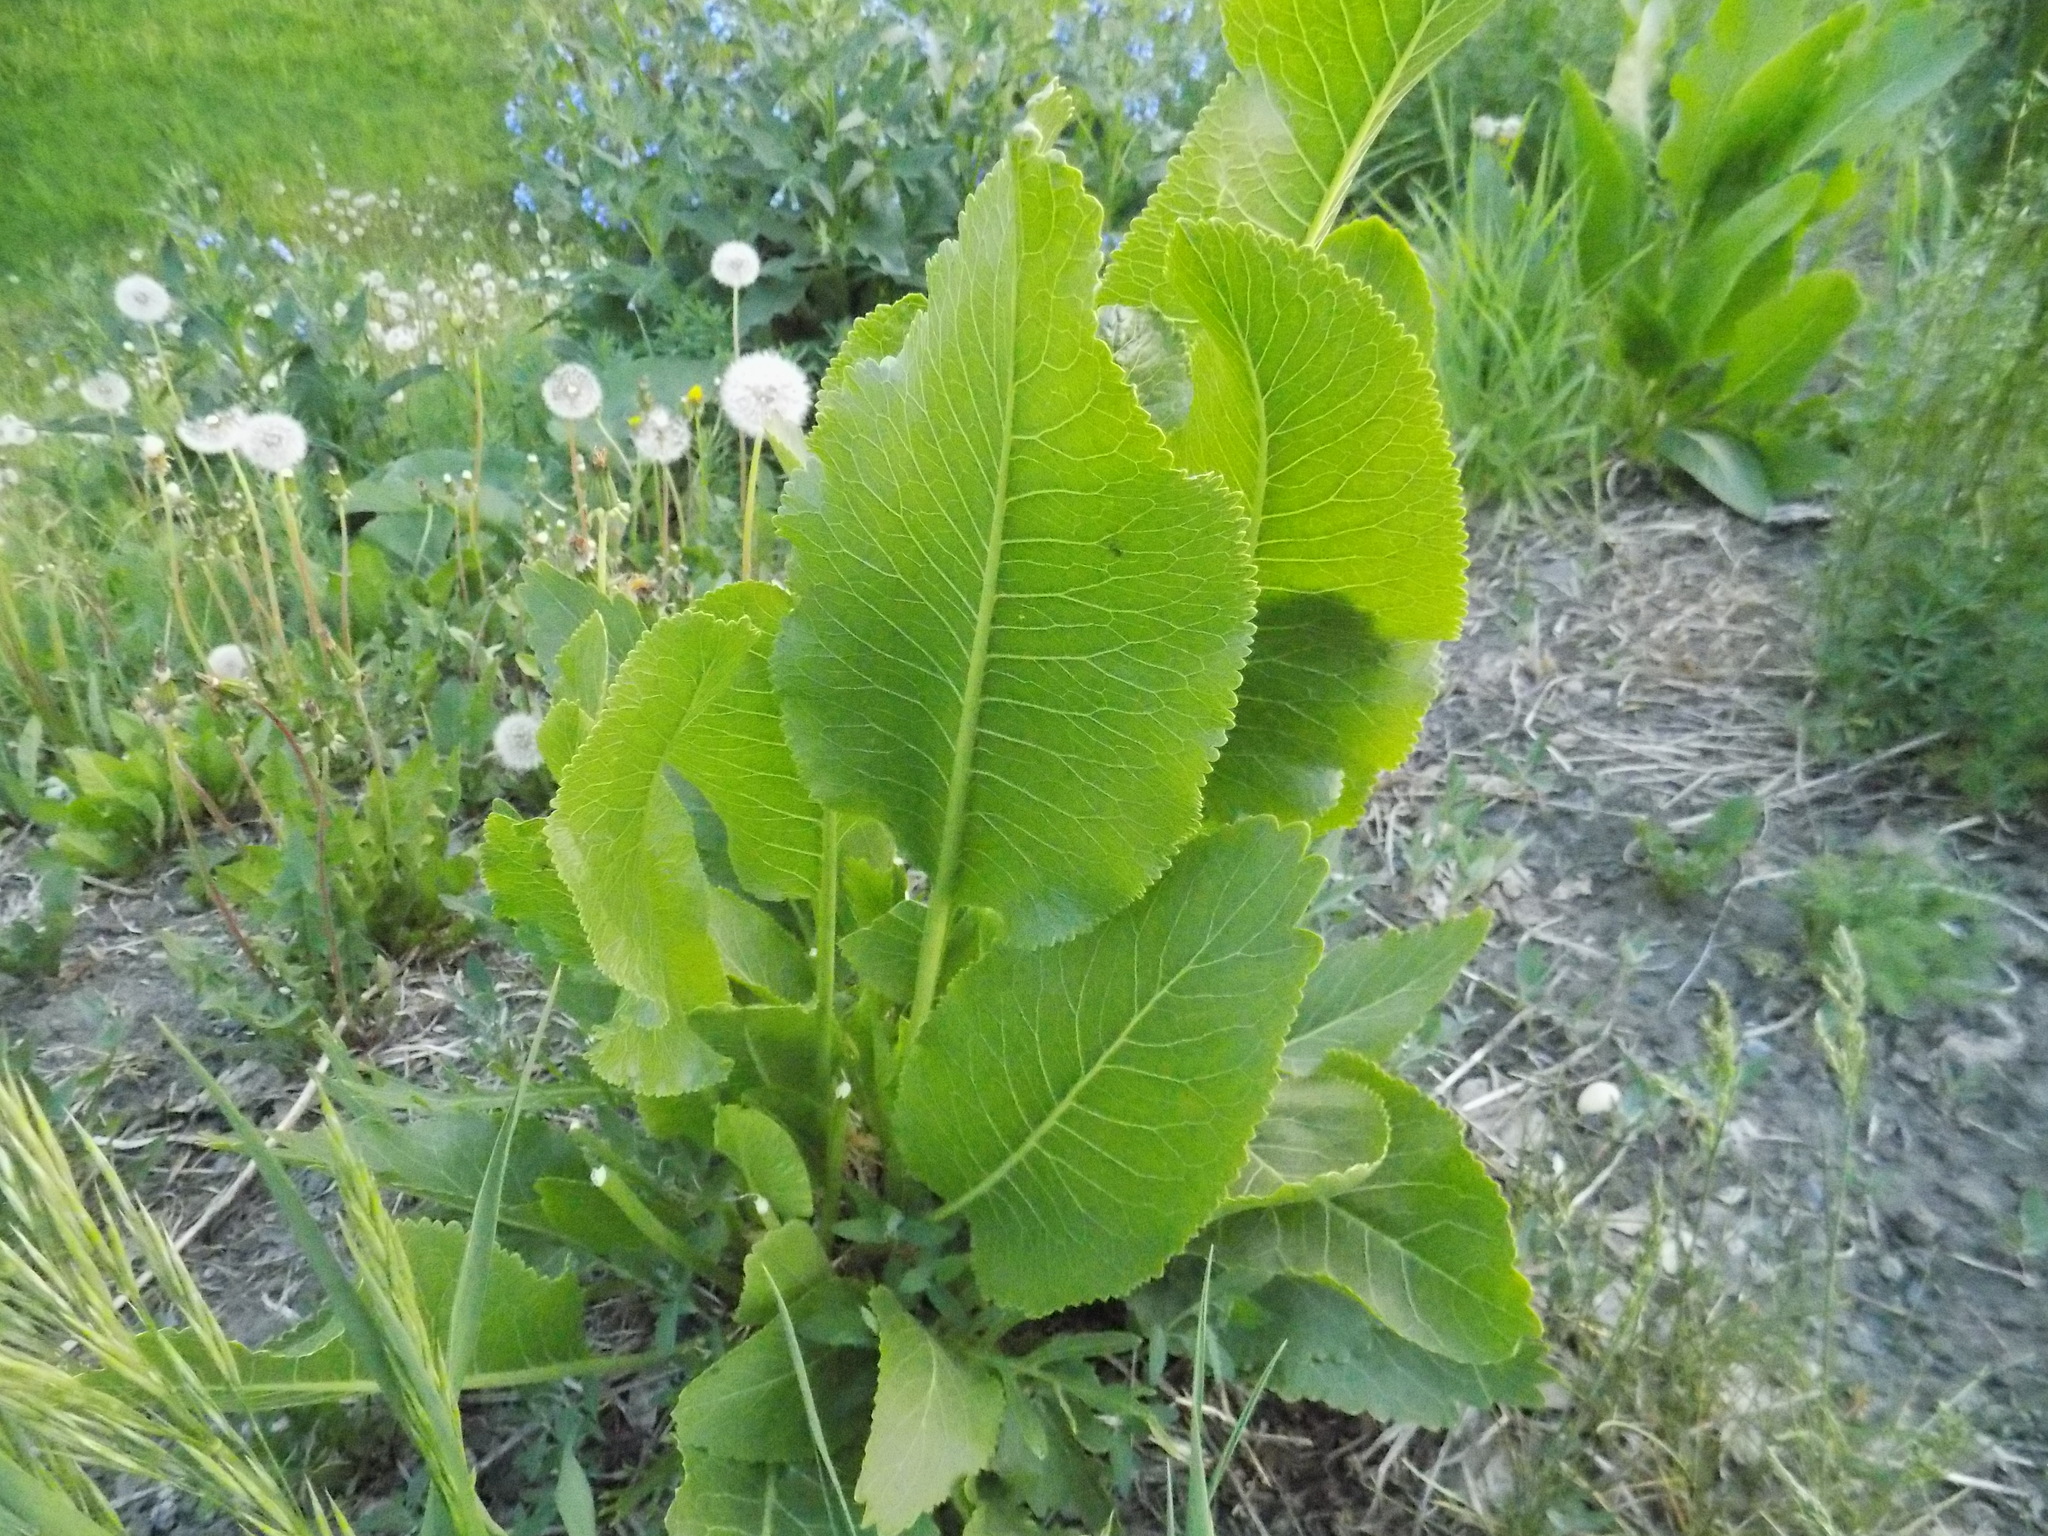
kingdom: Plantae
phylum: Tracheophyta
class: Magnoliopsida
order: Brassicales
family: Brassicaceae
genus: Armoracia
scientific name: Armoracia rusticana
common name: Horseradish
